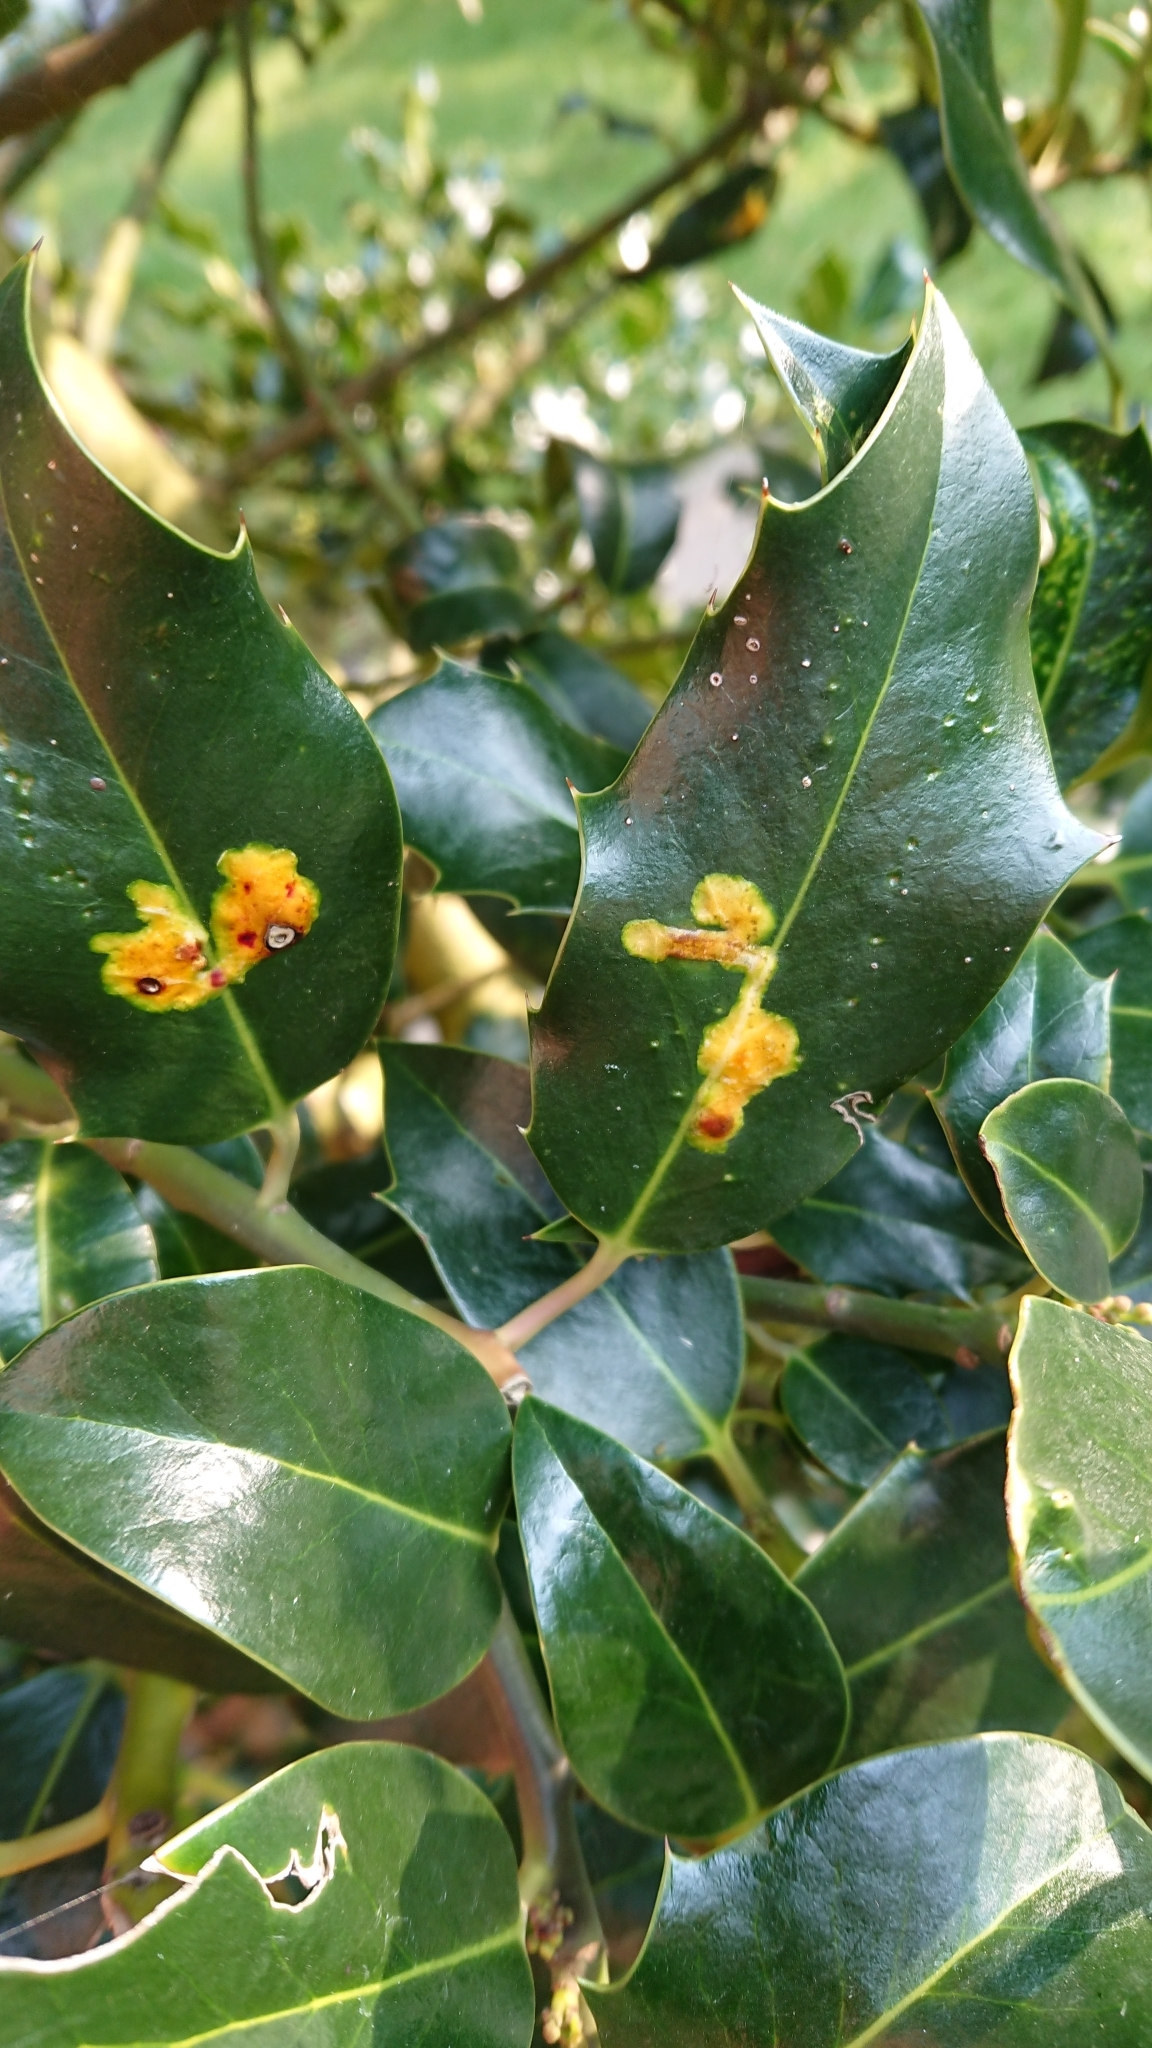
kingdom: Animalia
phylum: Arthropoda
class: Insecta
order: Diptera
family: Agromyzidae
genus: Phytomyza
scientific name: Phytomyza ilicis
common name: Holly leafminer
